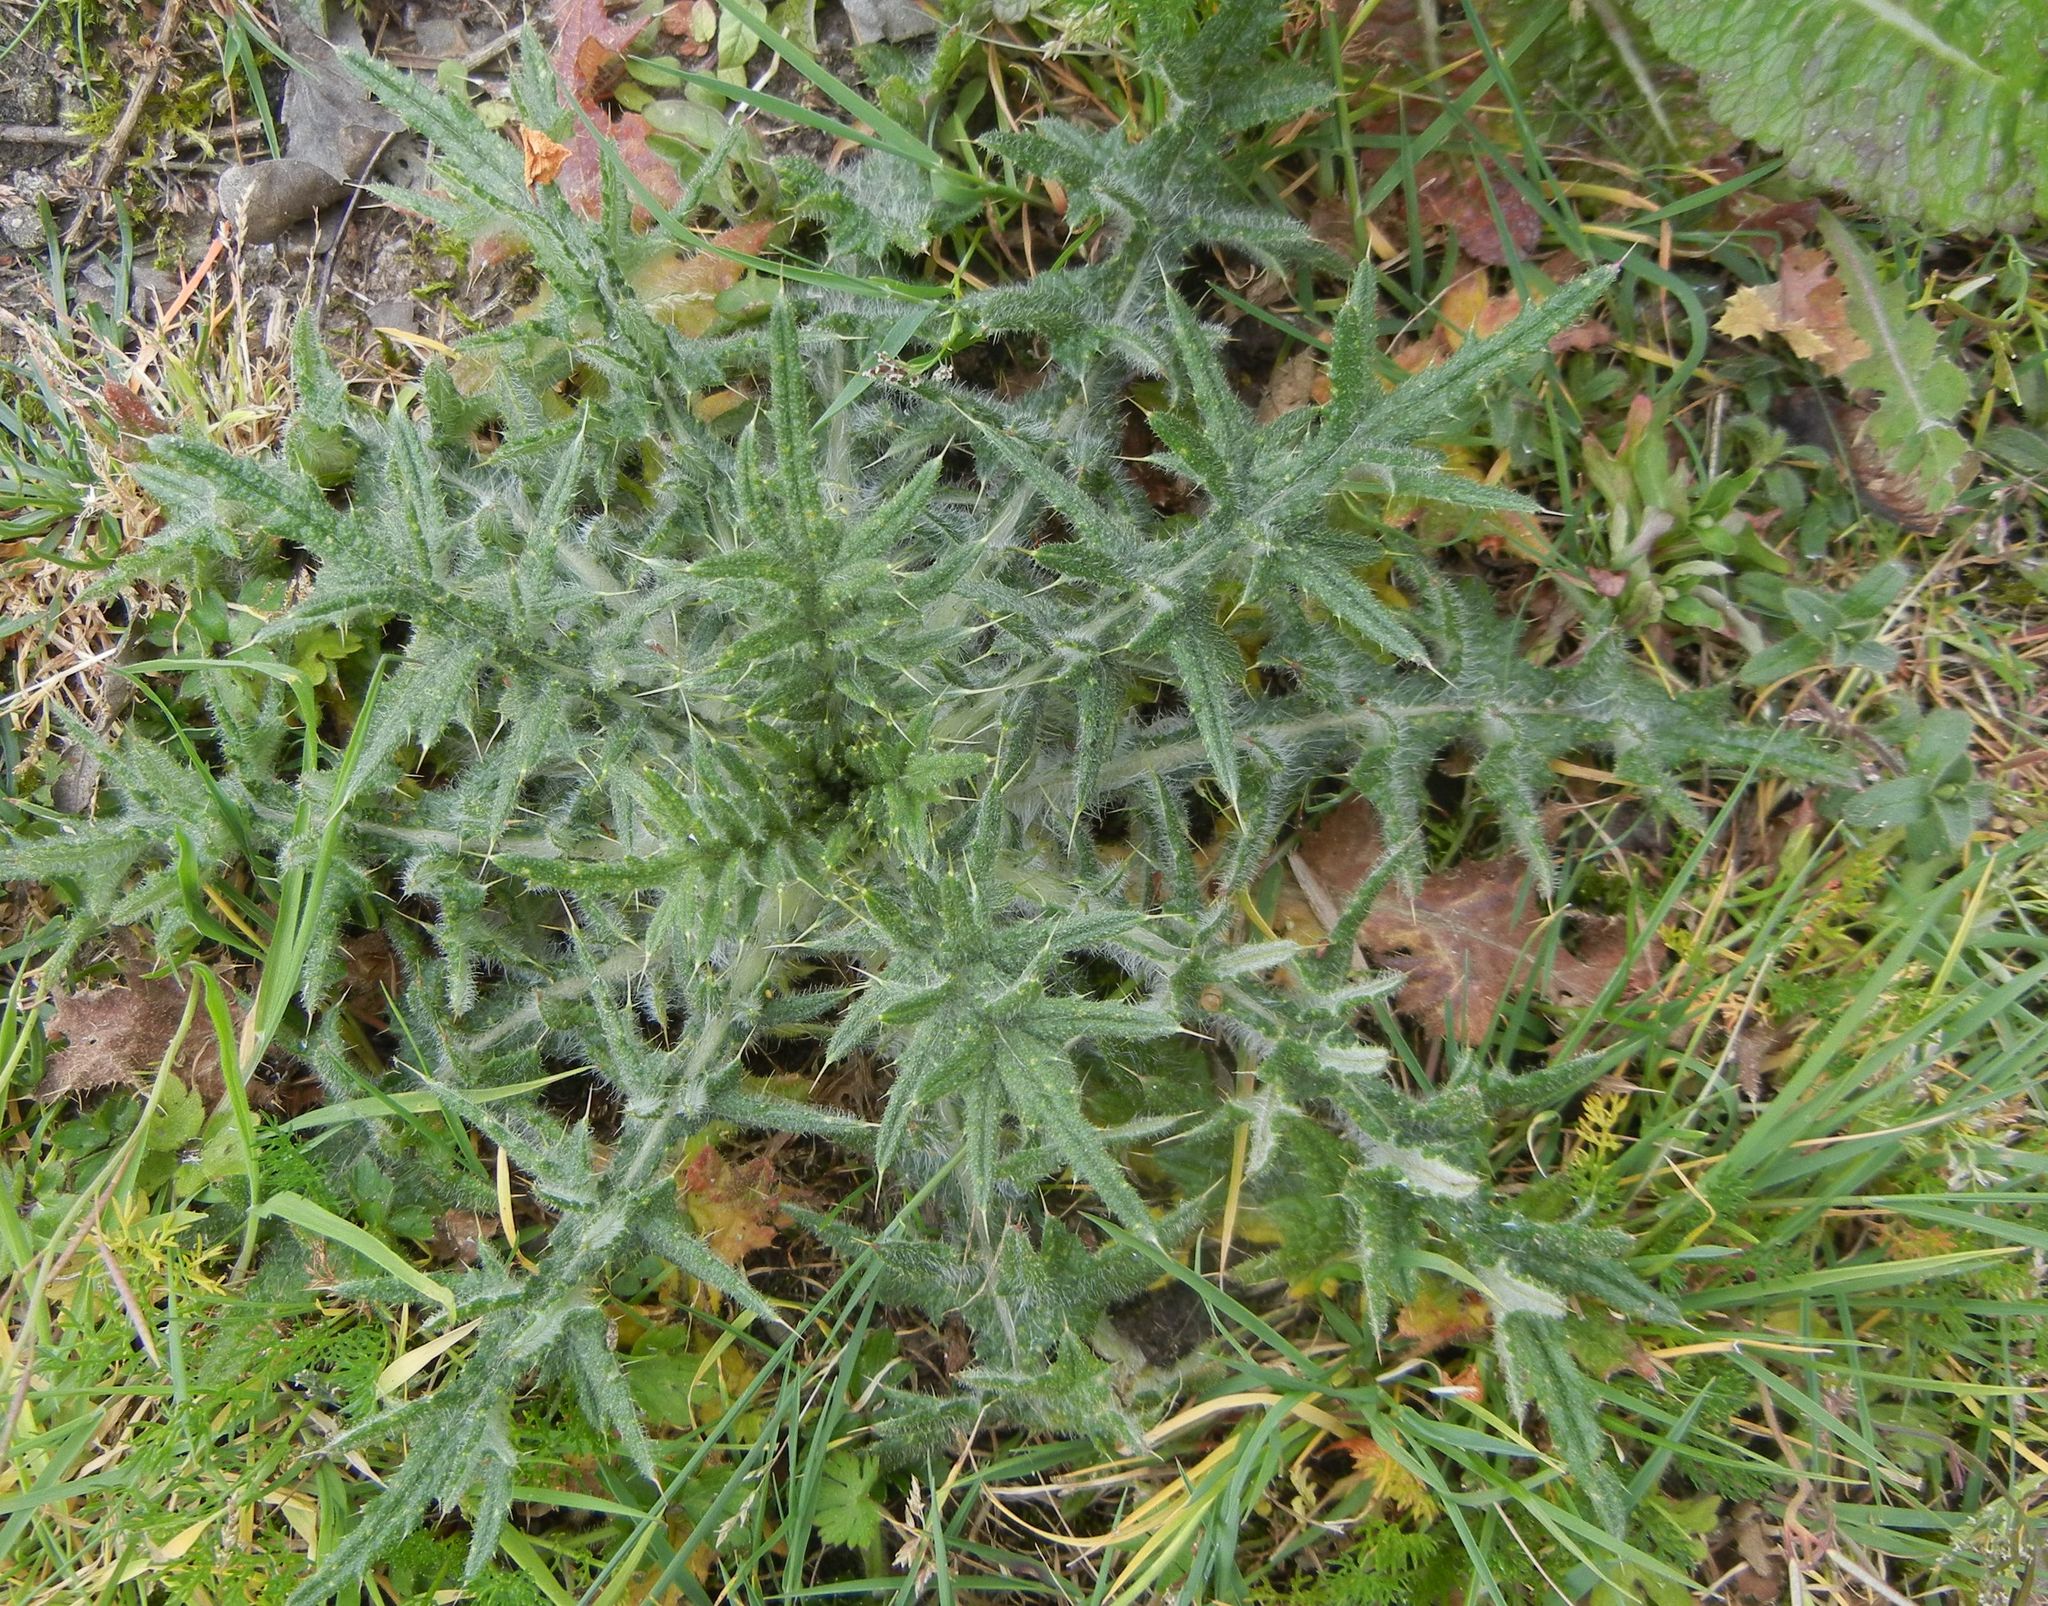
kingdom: Plantae
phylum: Tracheophyta
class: Magnoliopsida
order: Asterales
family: Asteraceae
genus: Cirsium
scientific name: Cirsium vulgare
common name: Bull thistle
